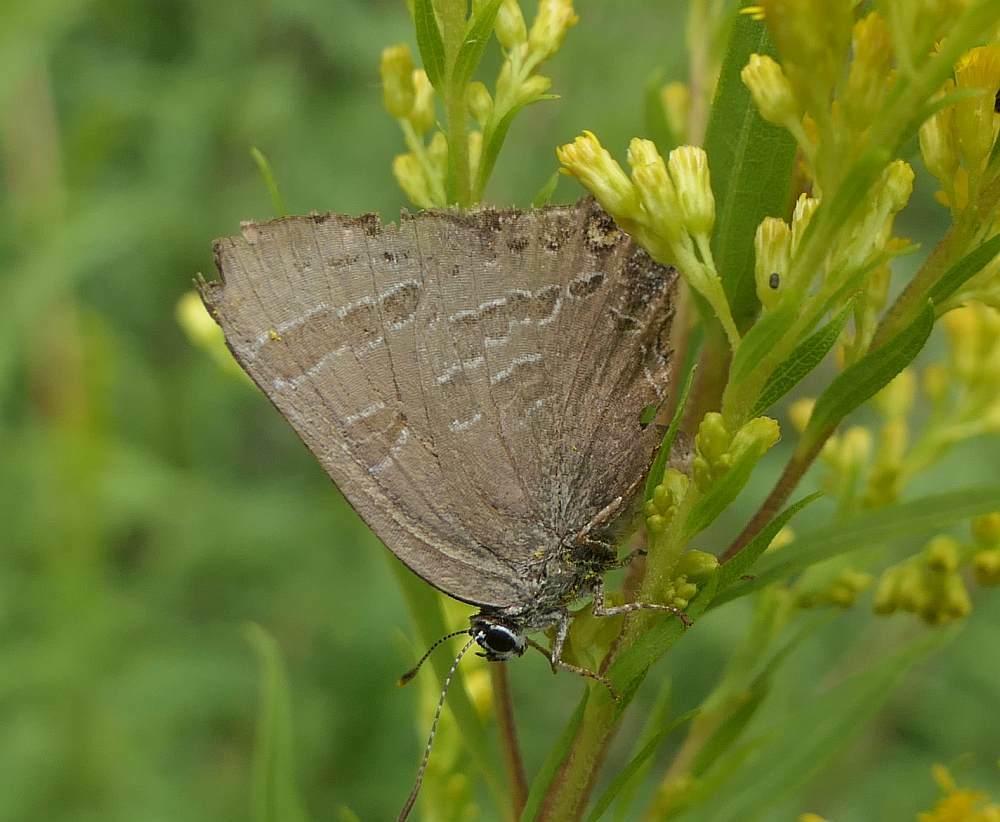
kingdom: Animalia
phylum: Arthropoda
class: Insecta
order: Lepidoptera
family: Lycaenidae
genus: Strymon
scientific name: Strymon caryaevorus
